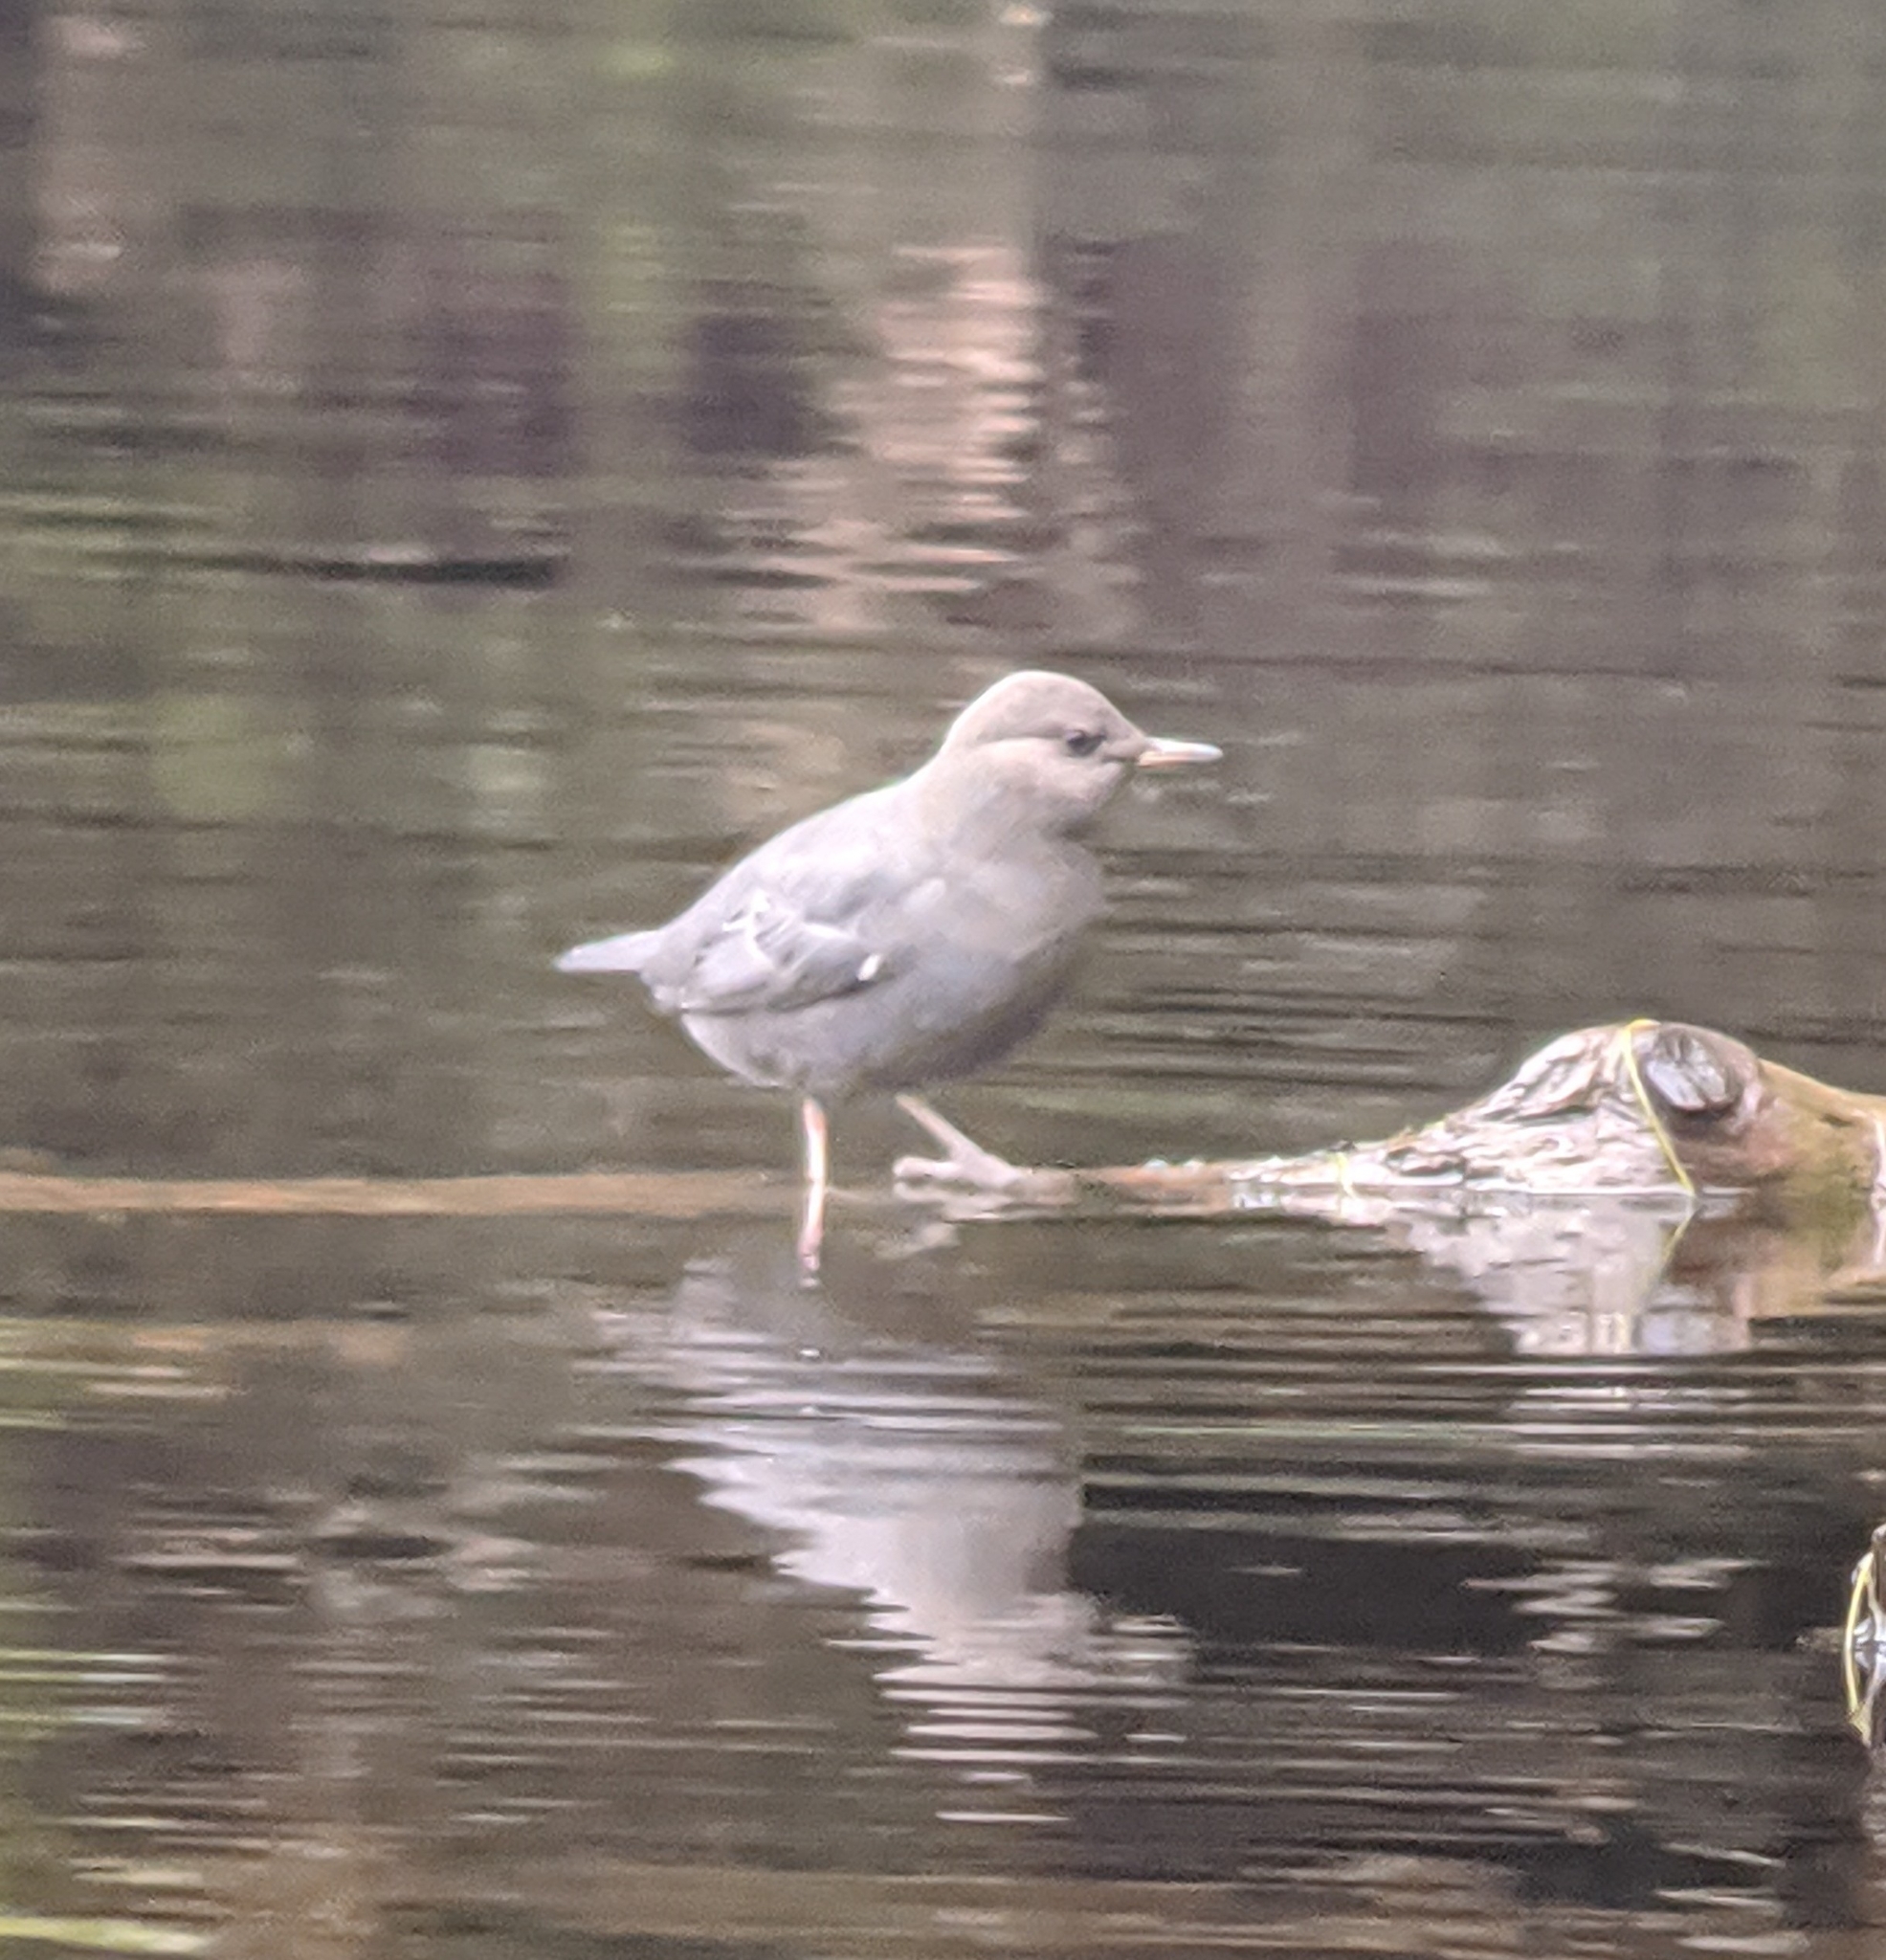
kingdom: Animalia
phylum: Chordata
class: Aves
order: Passeriformes
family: Cinclidae
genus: Cinclus
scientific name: Cinclus mexicanus
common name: American dipper
